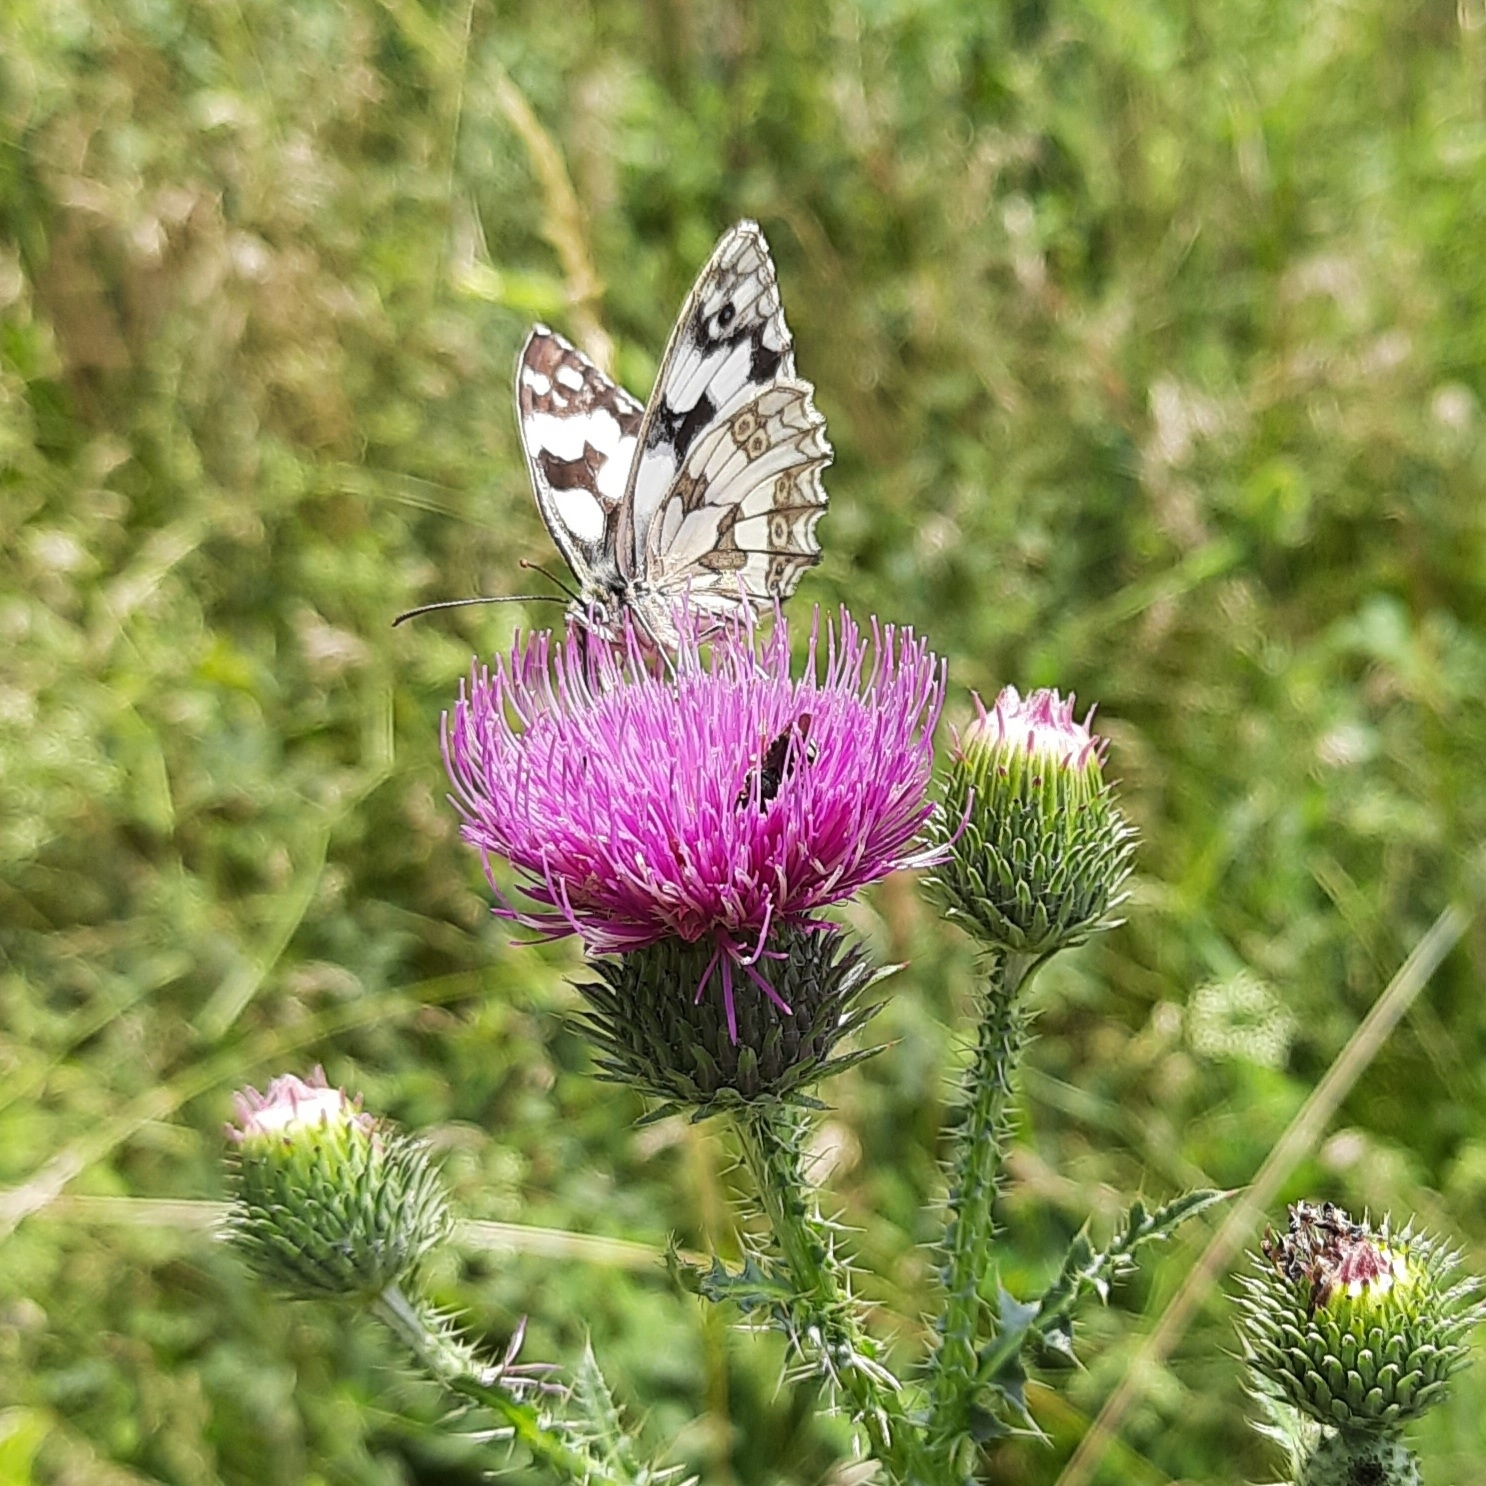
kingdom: Animalia
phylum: Arthropoda
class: Insecta
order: Lepidoptera
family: Nymphalidae
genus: Melanargia
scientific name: Melanargia galathea
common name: Marbled white
